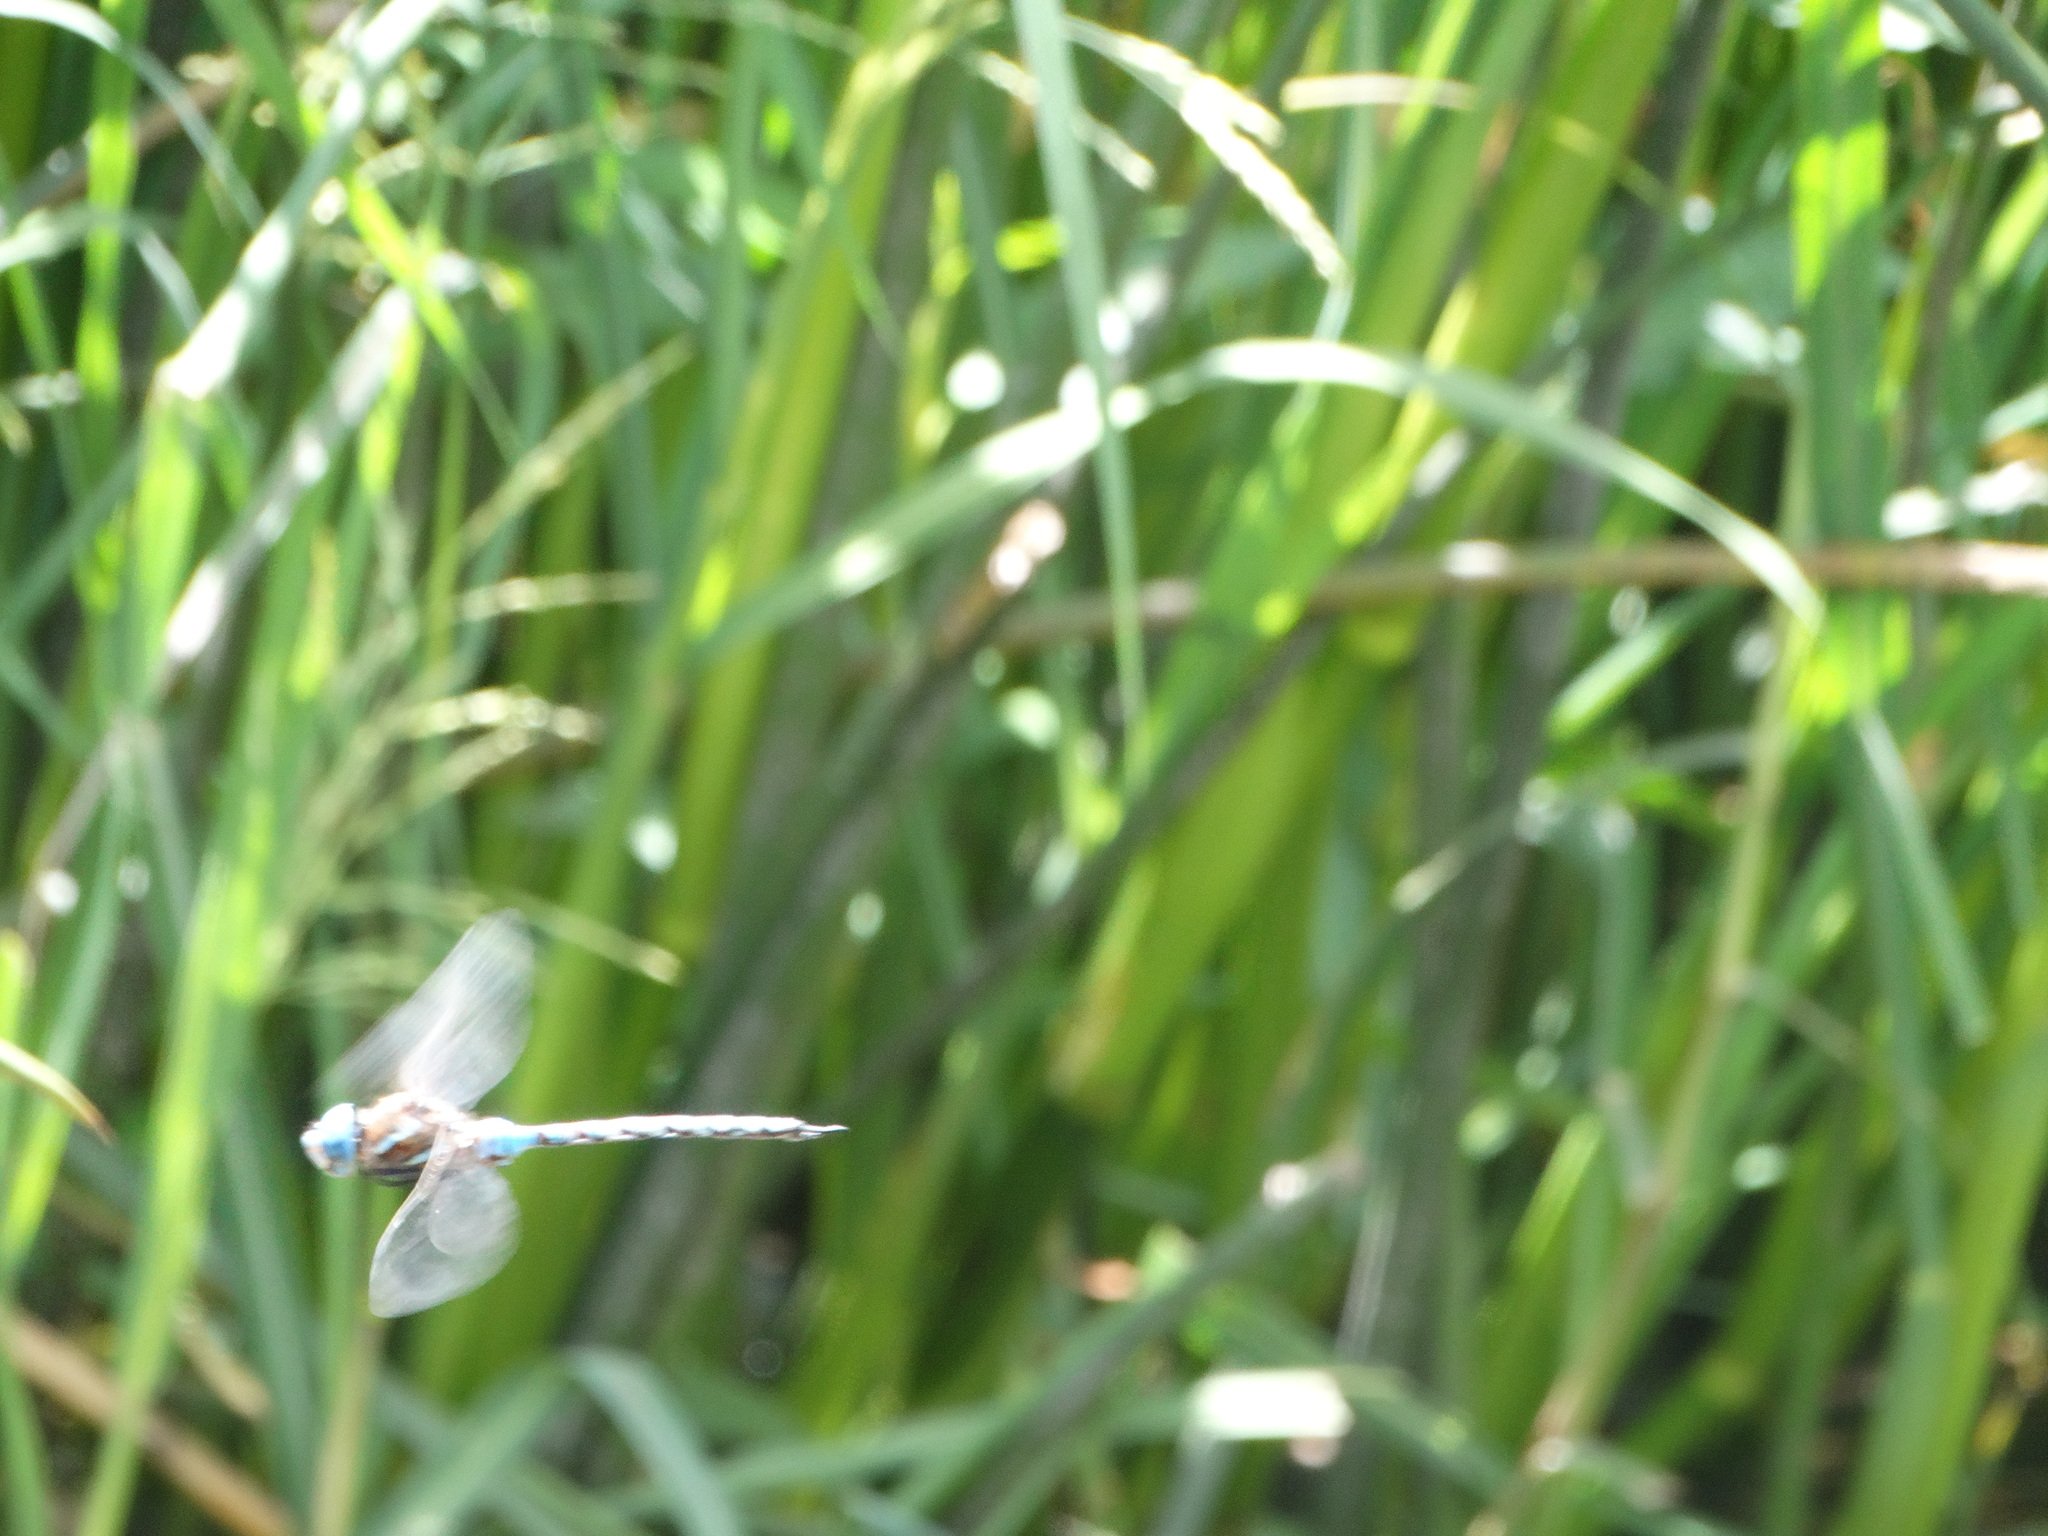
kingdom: Animalia
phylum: Arthropoda
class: Insecta
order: Odonata
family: Aeshnidae
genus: Rhionaeschna
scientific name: Rhionaeschna multicolor
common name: Blue-eyed darner
